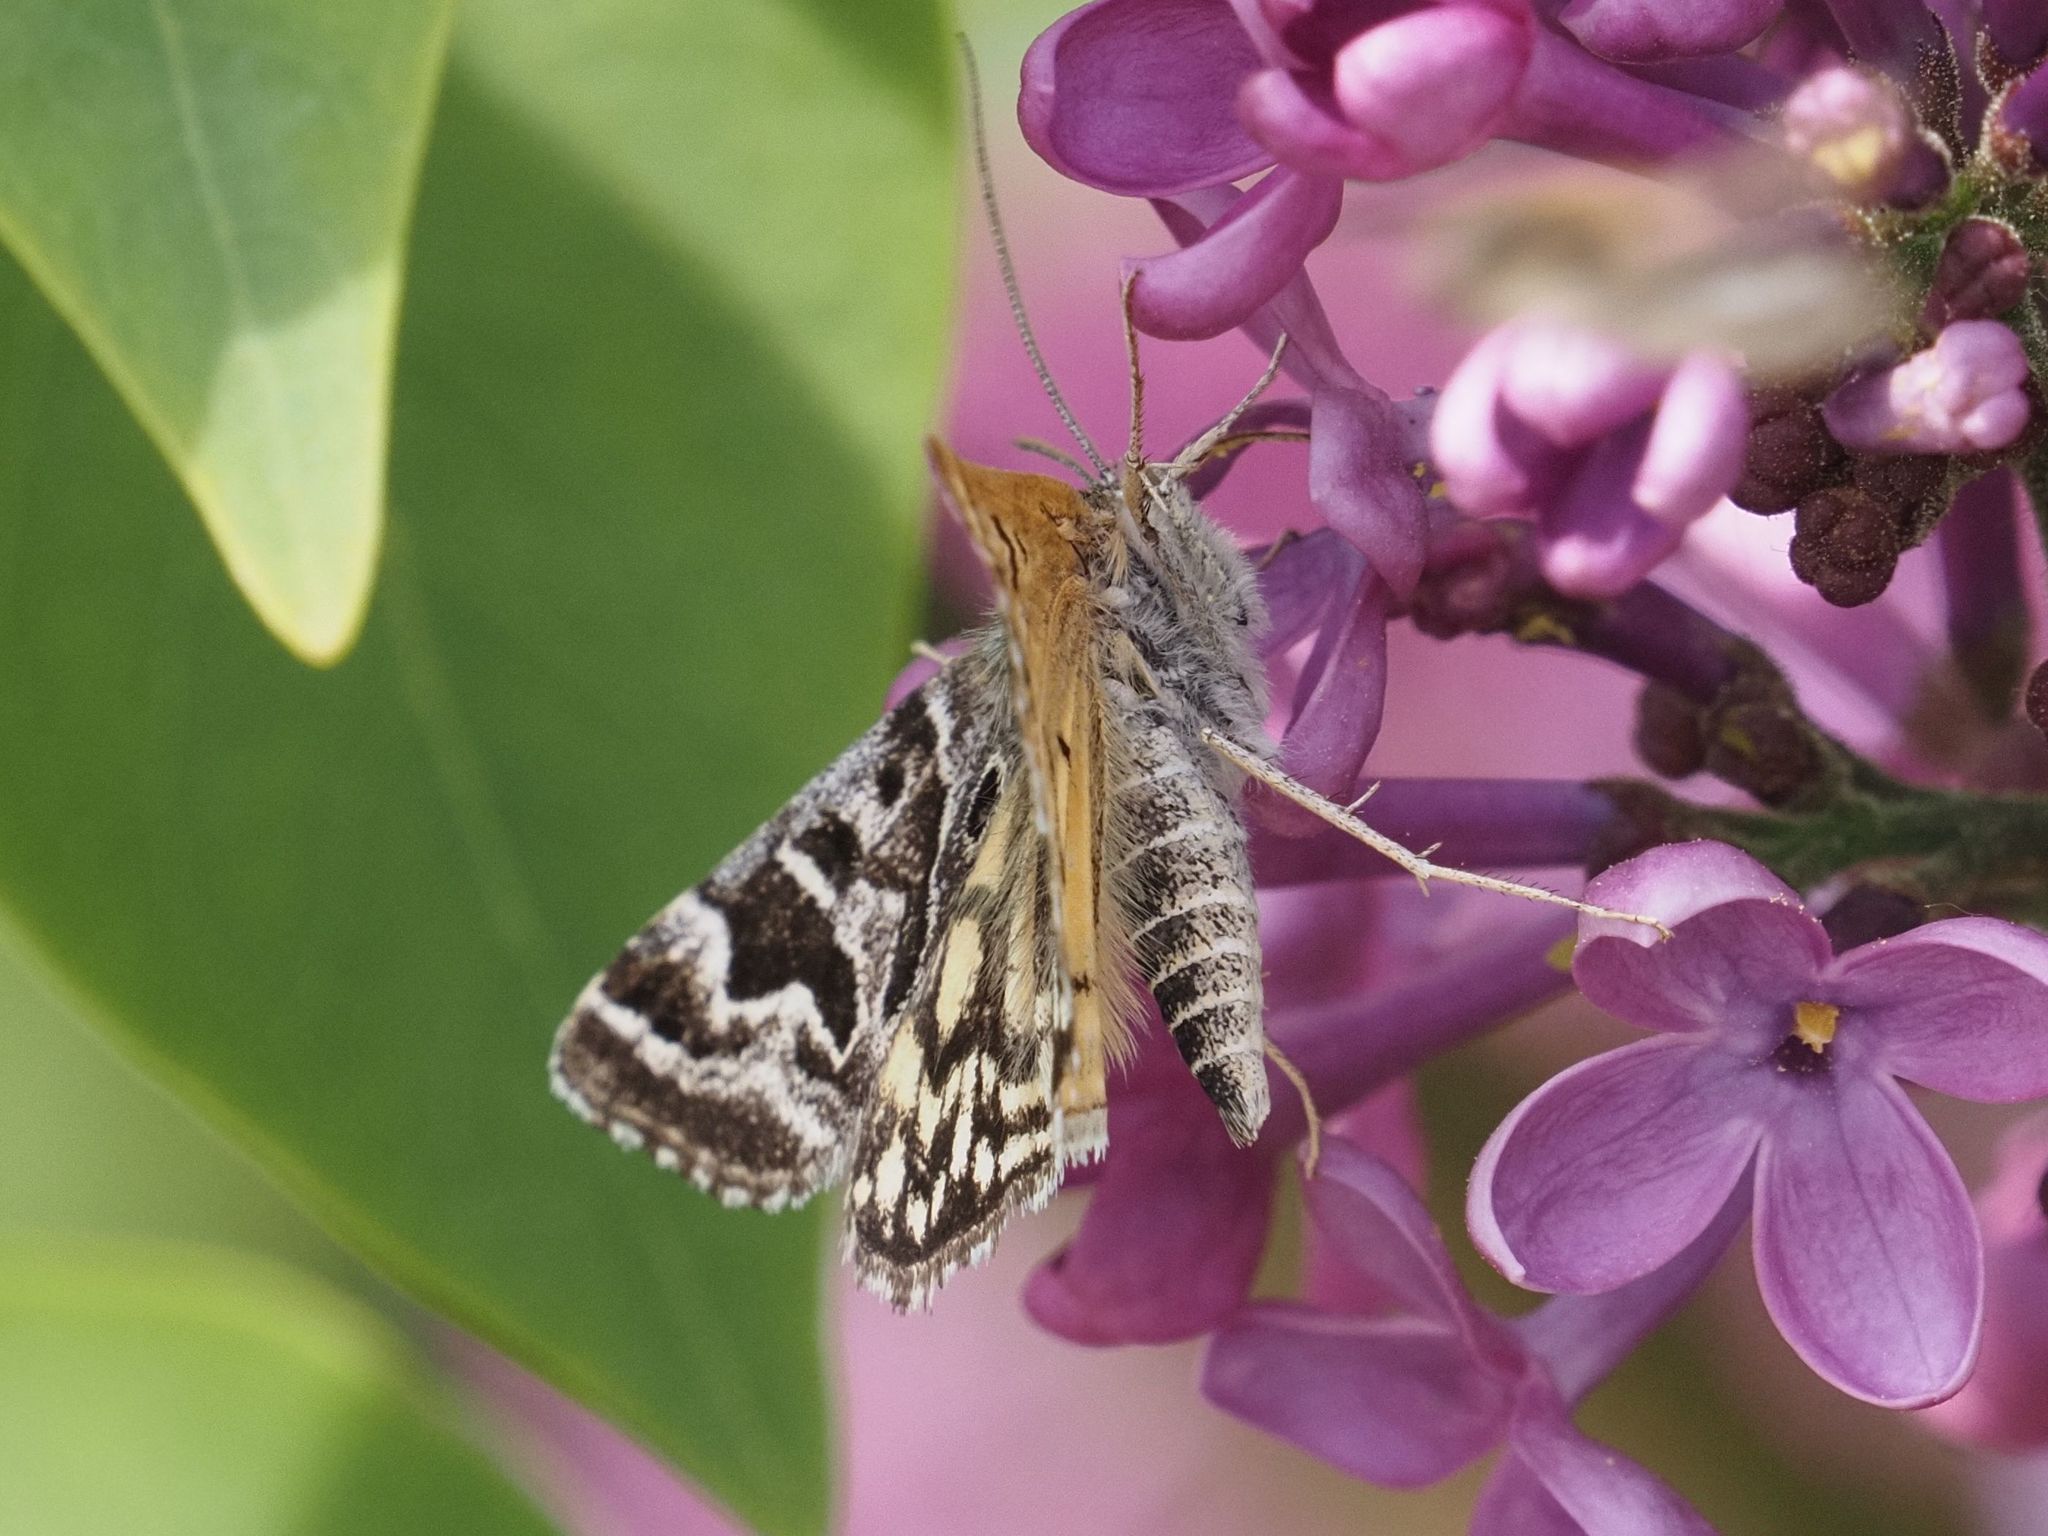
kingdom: Animalia
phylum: Arthropoda
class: Insecta
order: Lepidoptera
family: Erebidae
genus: Callistege
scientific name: Callistege mi
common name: Mother shipton
